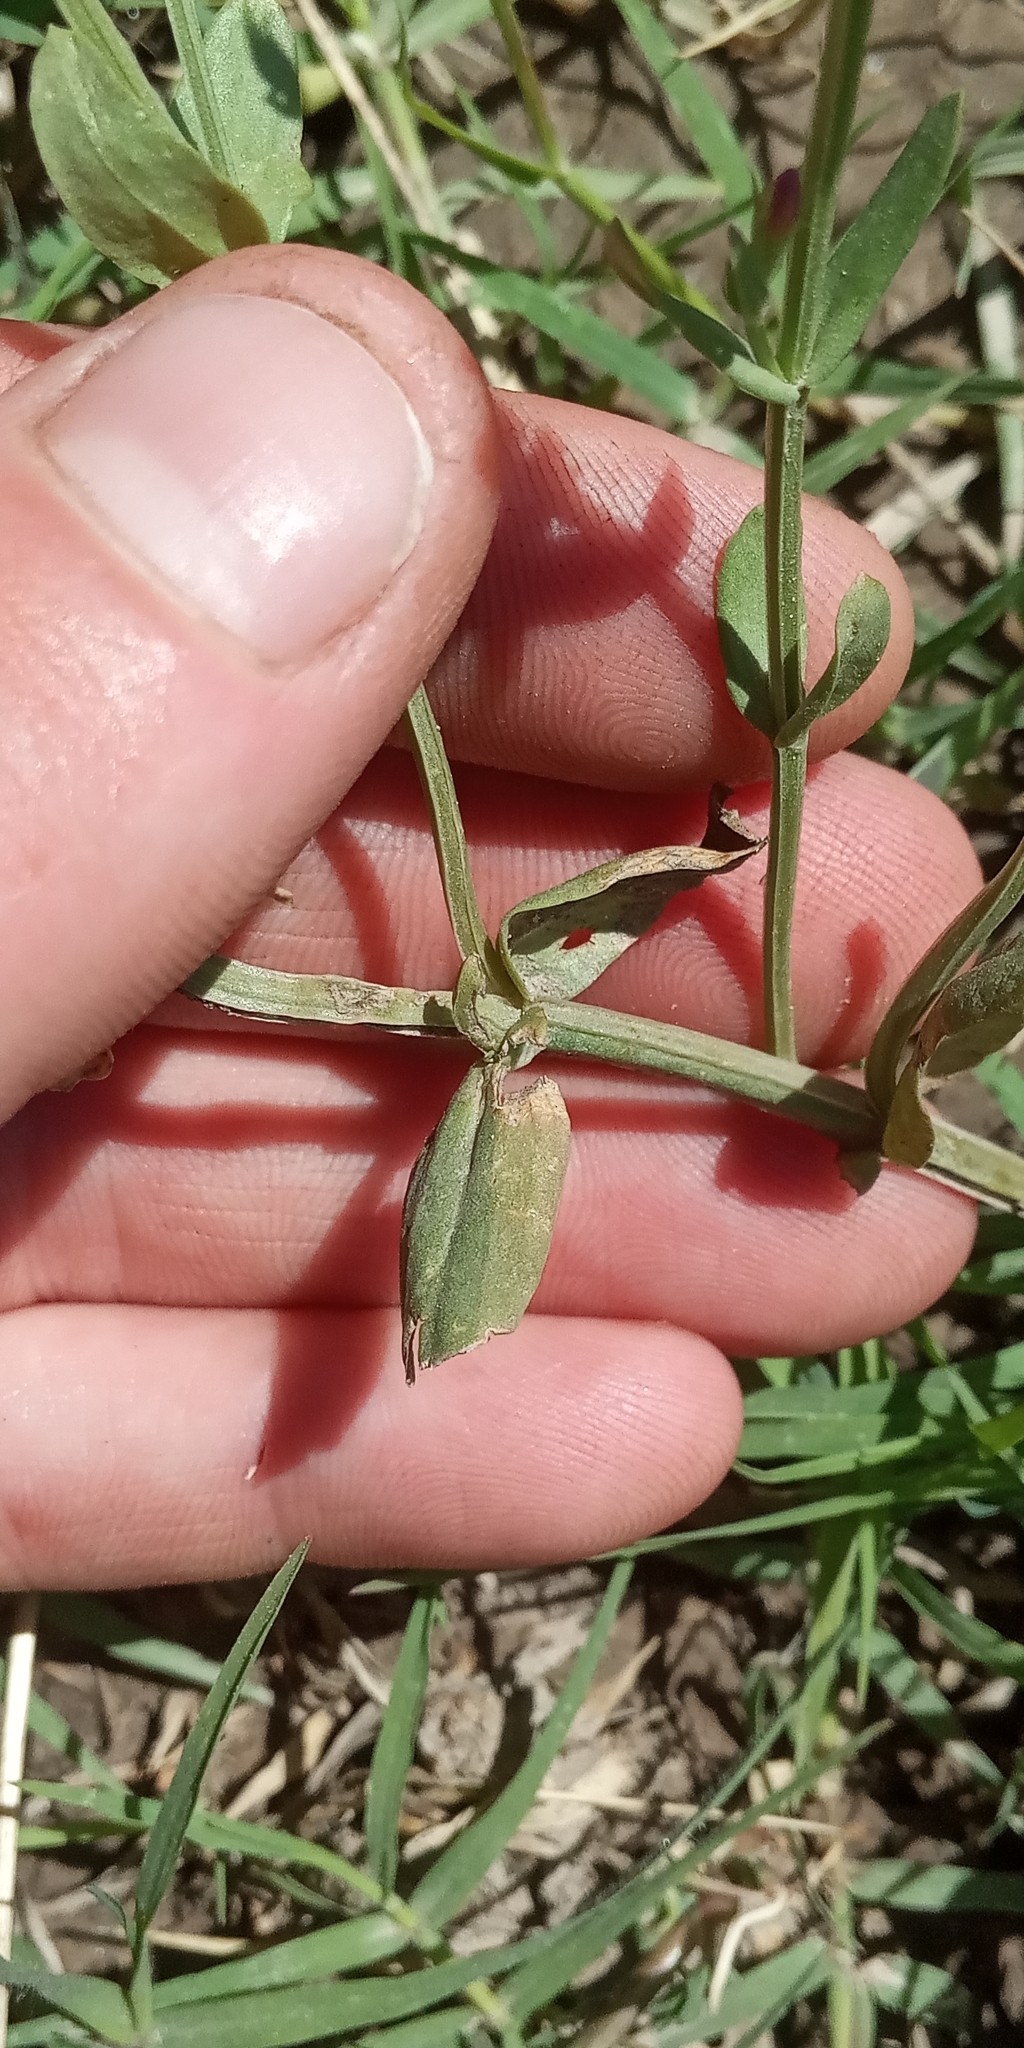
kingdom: Plantae
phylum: Tracheophyta
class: Magnoliopsida
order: Gentianales
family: Gentianaceae
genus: Centaurium
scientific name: Centaurium pulchellum
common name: Lesser centaury
